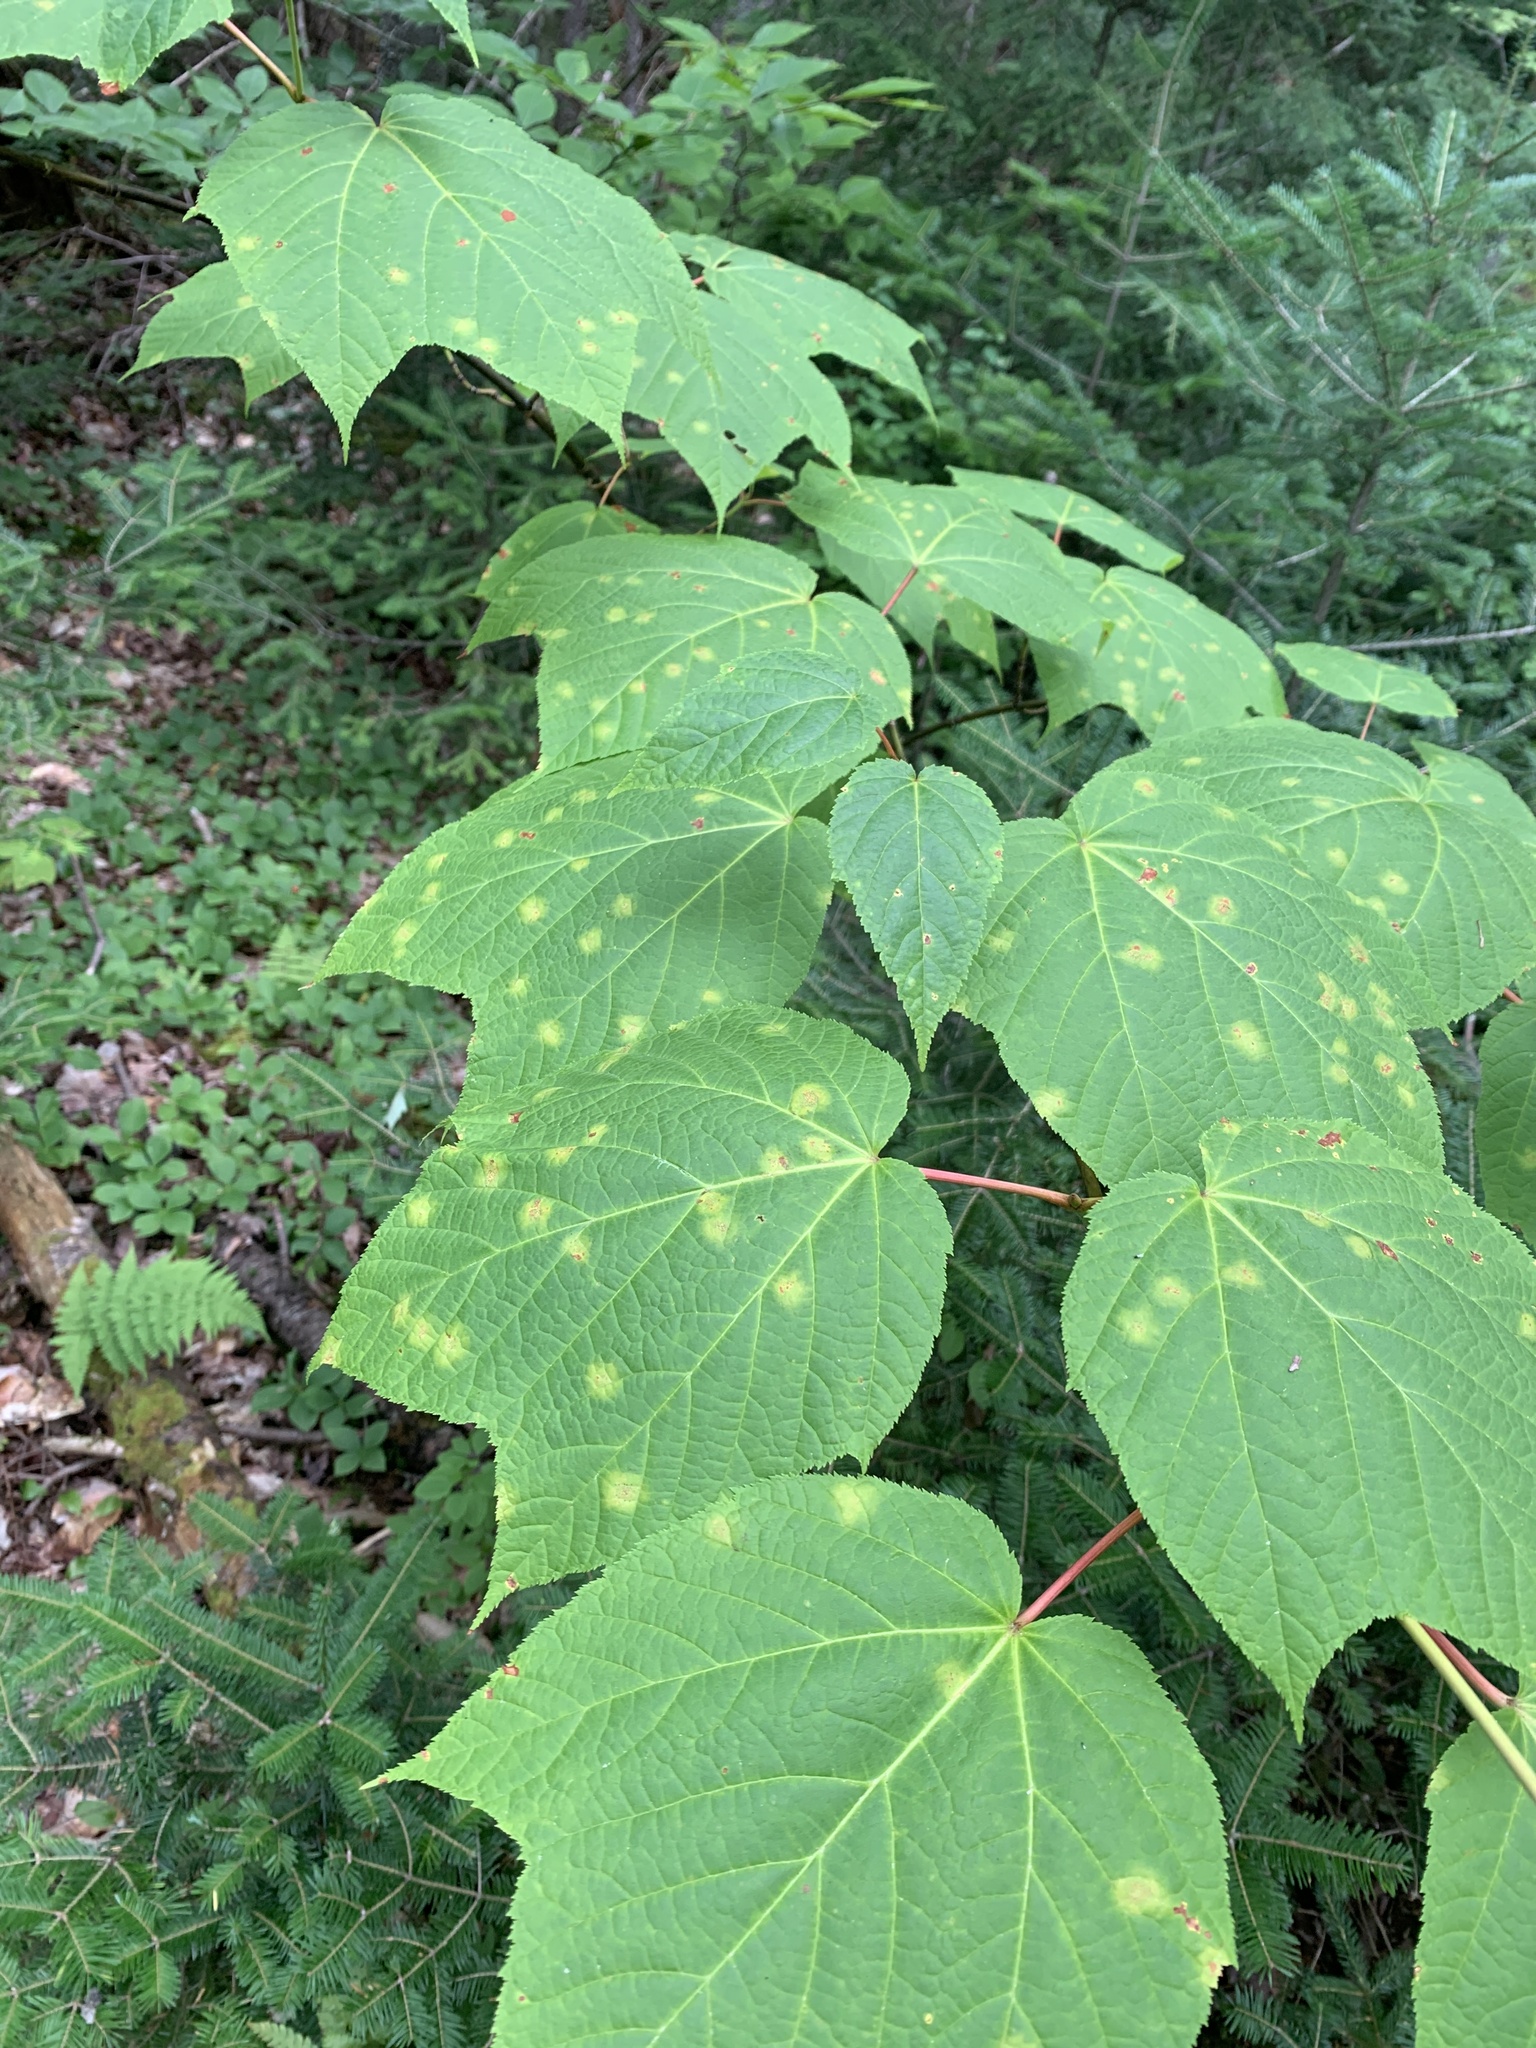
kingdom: Plantae
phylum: Tracheophyta
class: Magnoliopsida
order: Sapindales
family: Sapindaceae
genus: Acer
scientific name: Acer pensylvanicum
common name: Moosewood
